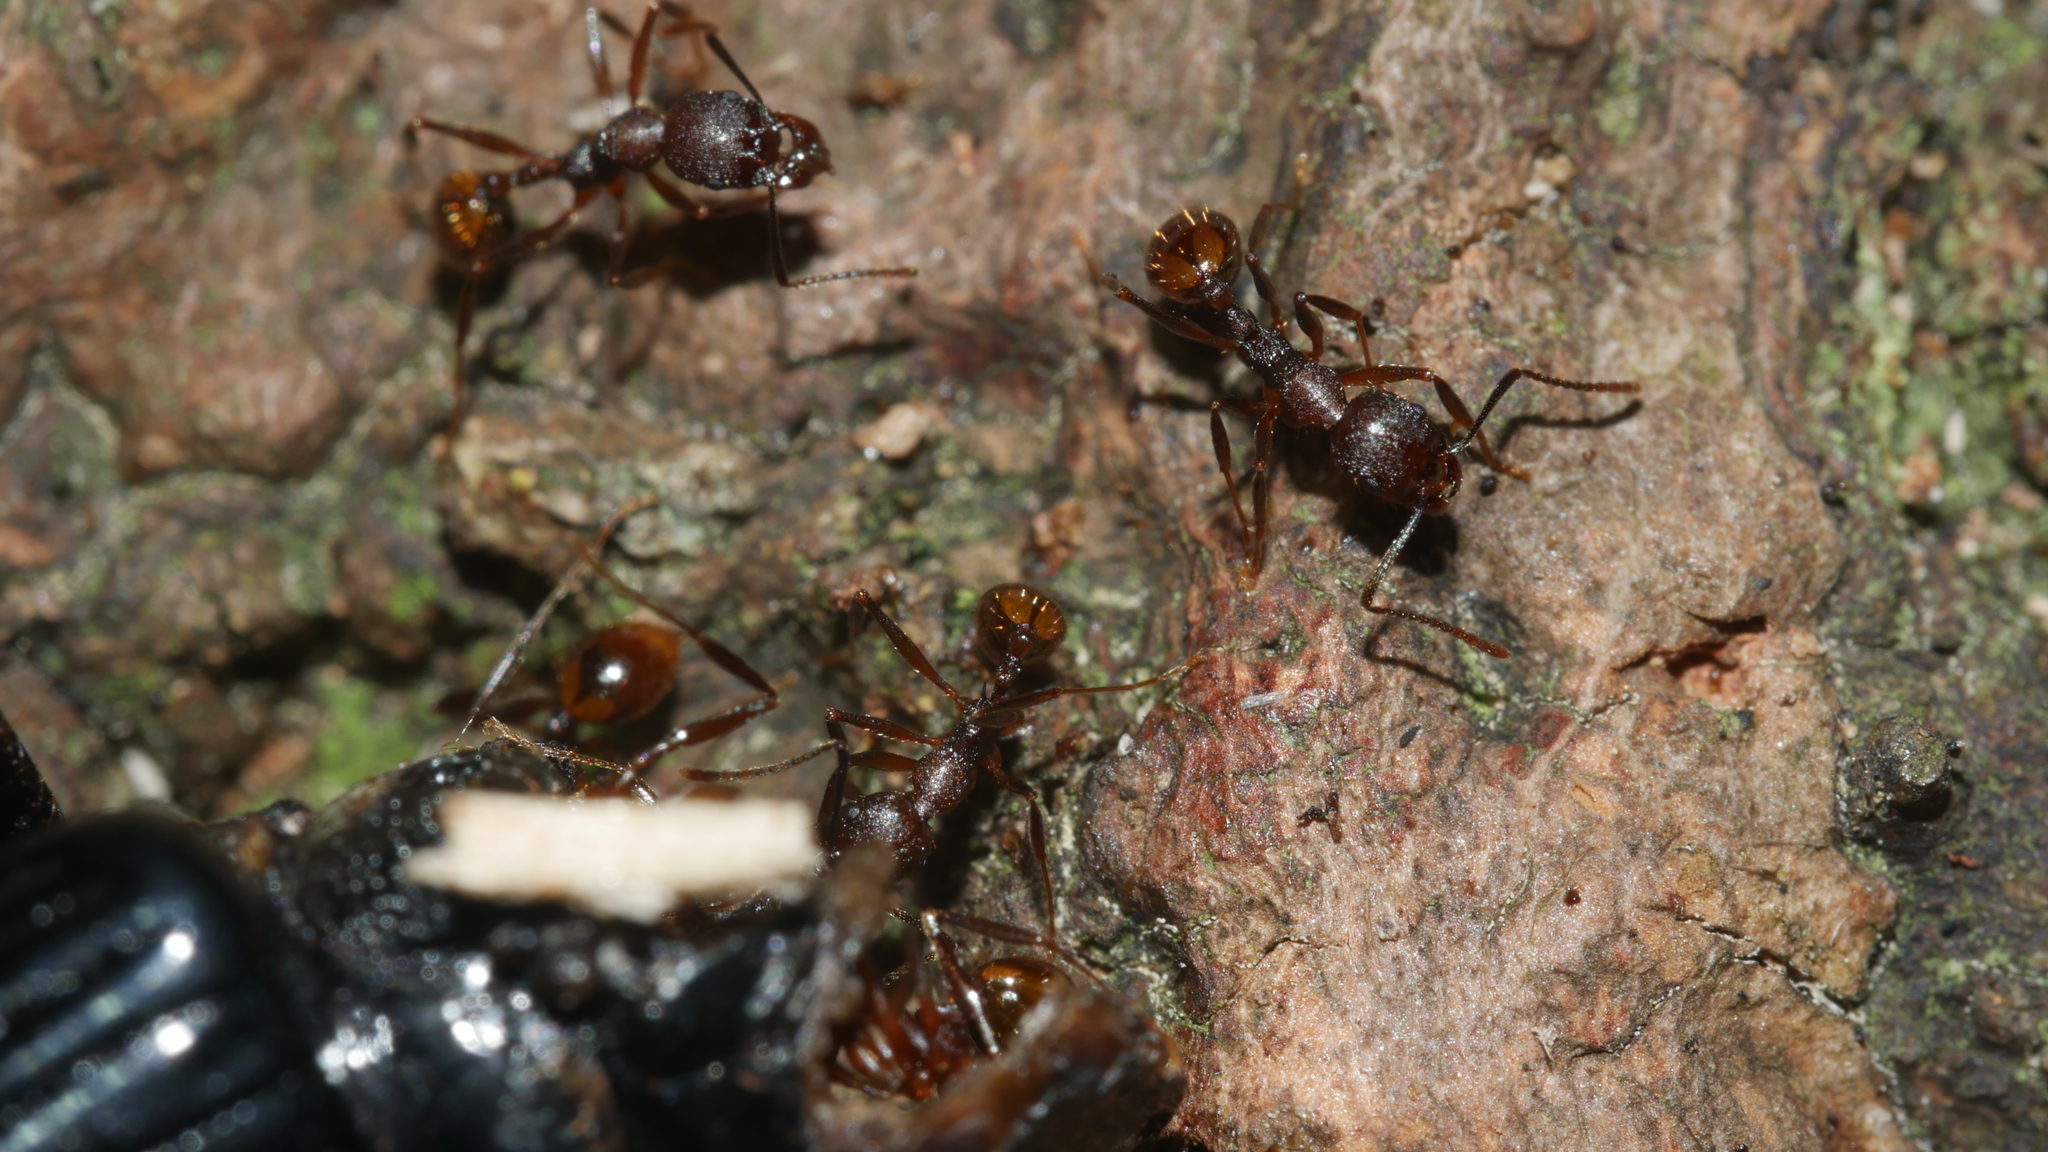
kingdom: Animalia
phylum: Arthropoda
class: Insecta
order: Hymenoptera
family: Formicidae
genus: Aphaenogaster
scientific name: Aphaenogaster fulva
